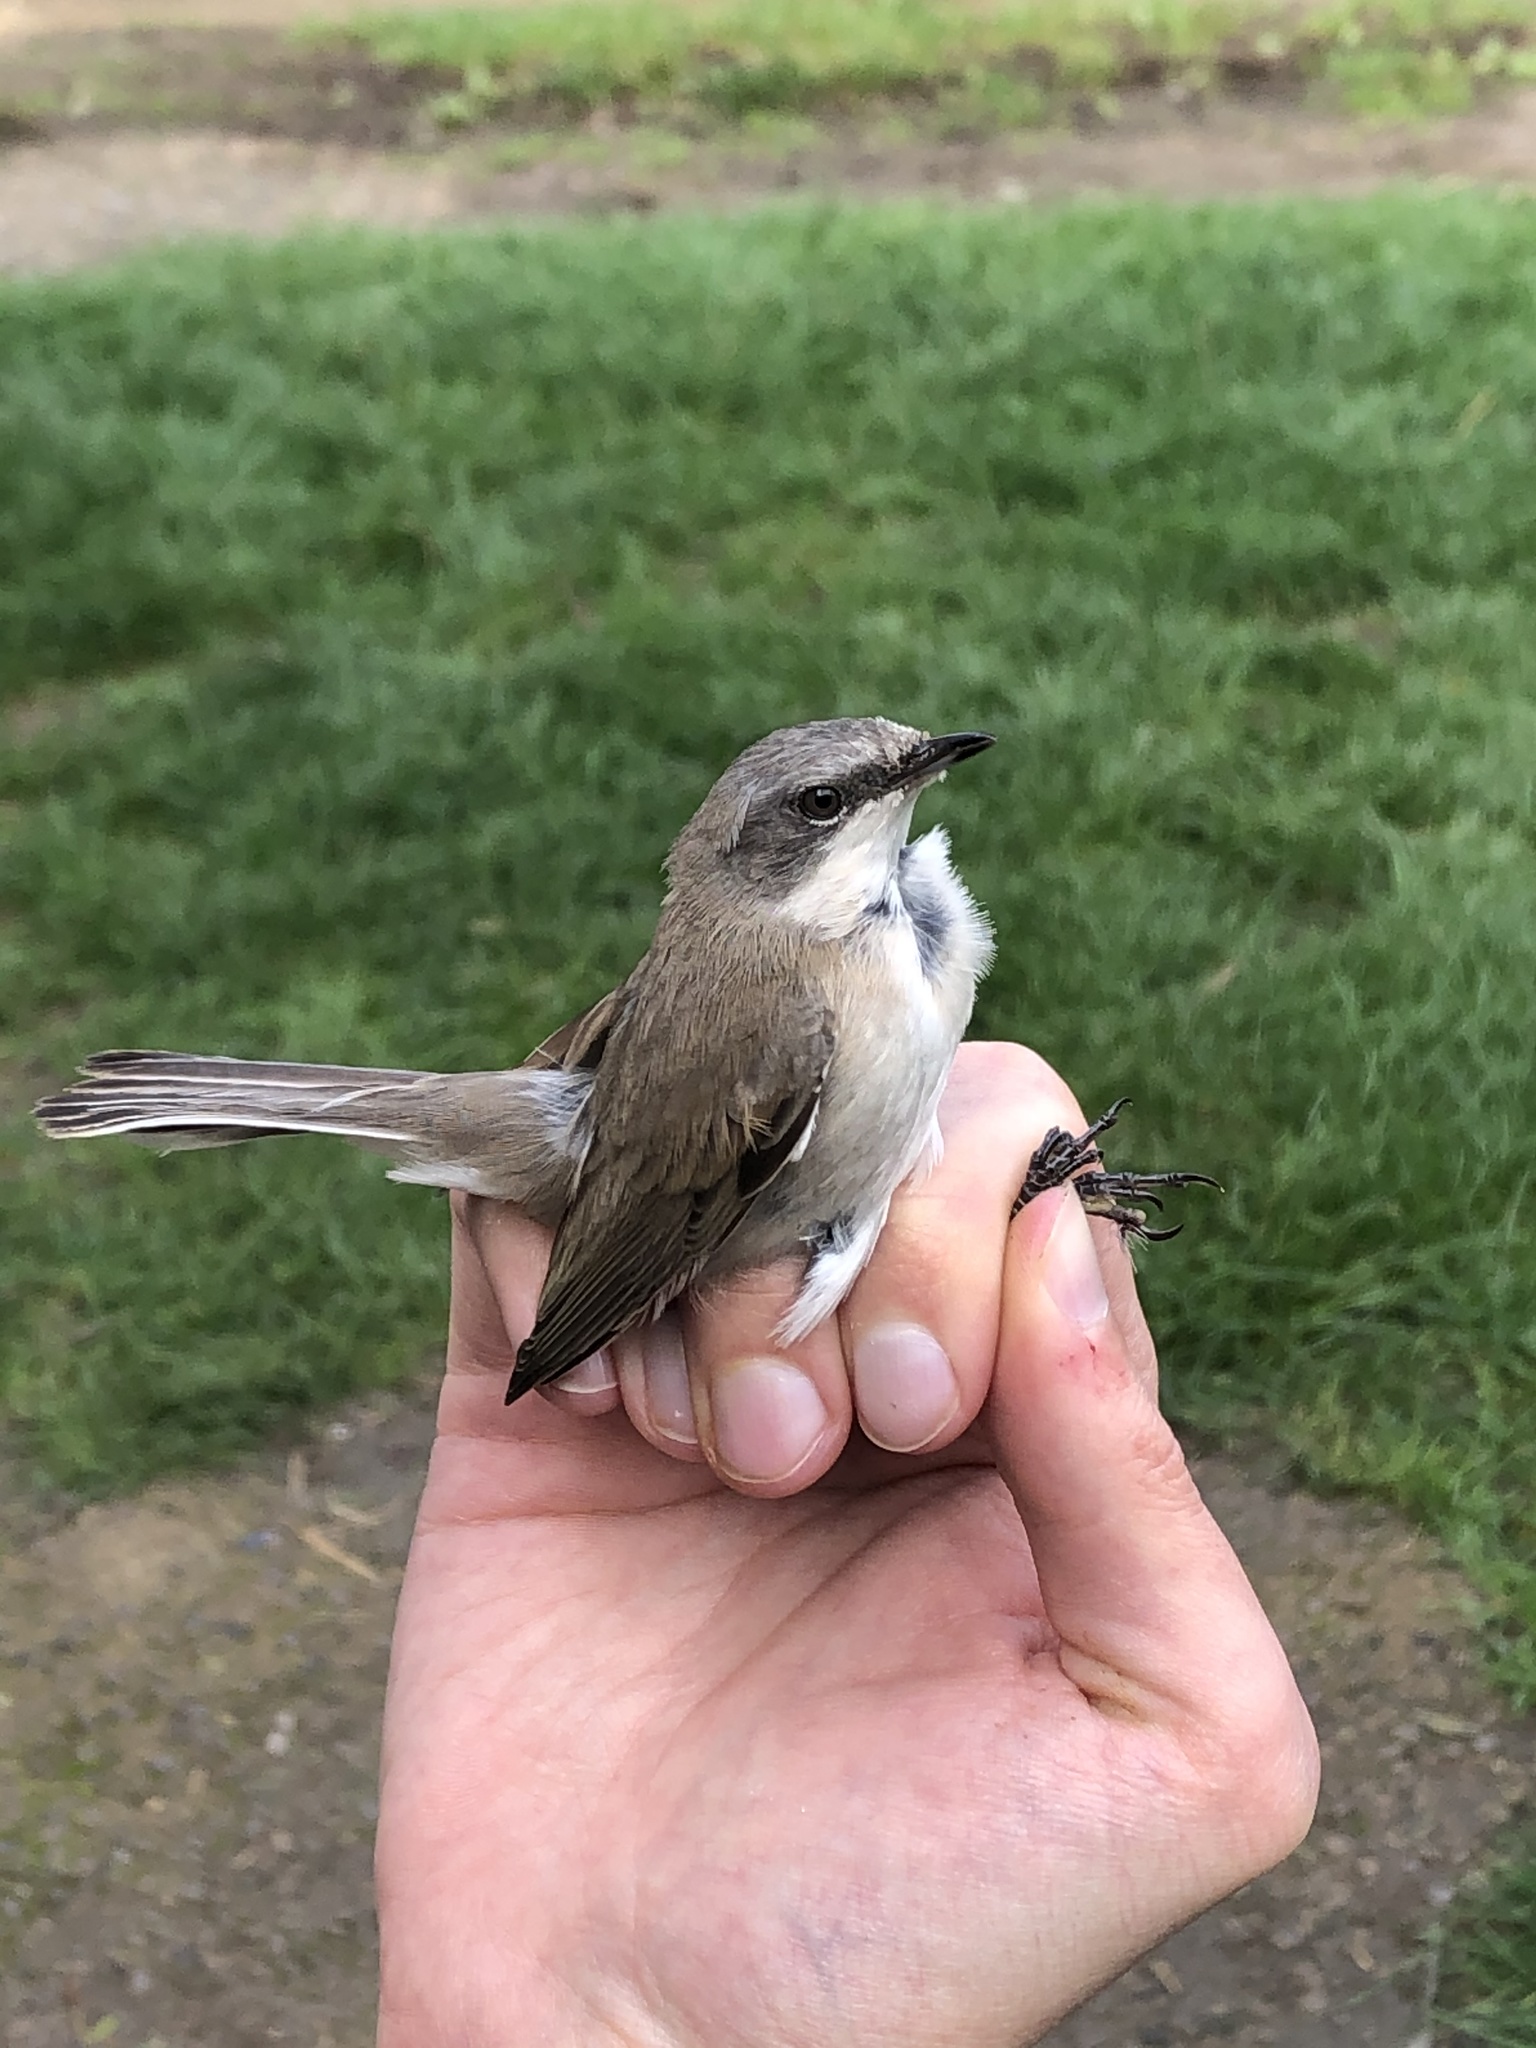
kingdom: Animalia
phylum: Chordata
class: Aves
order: Passeriformes
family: Sylviidae
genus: Sylvia
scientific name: Sylvia curruca
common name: Lesser whitethroat
